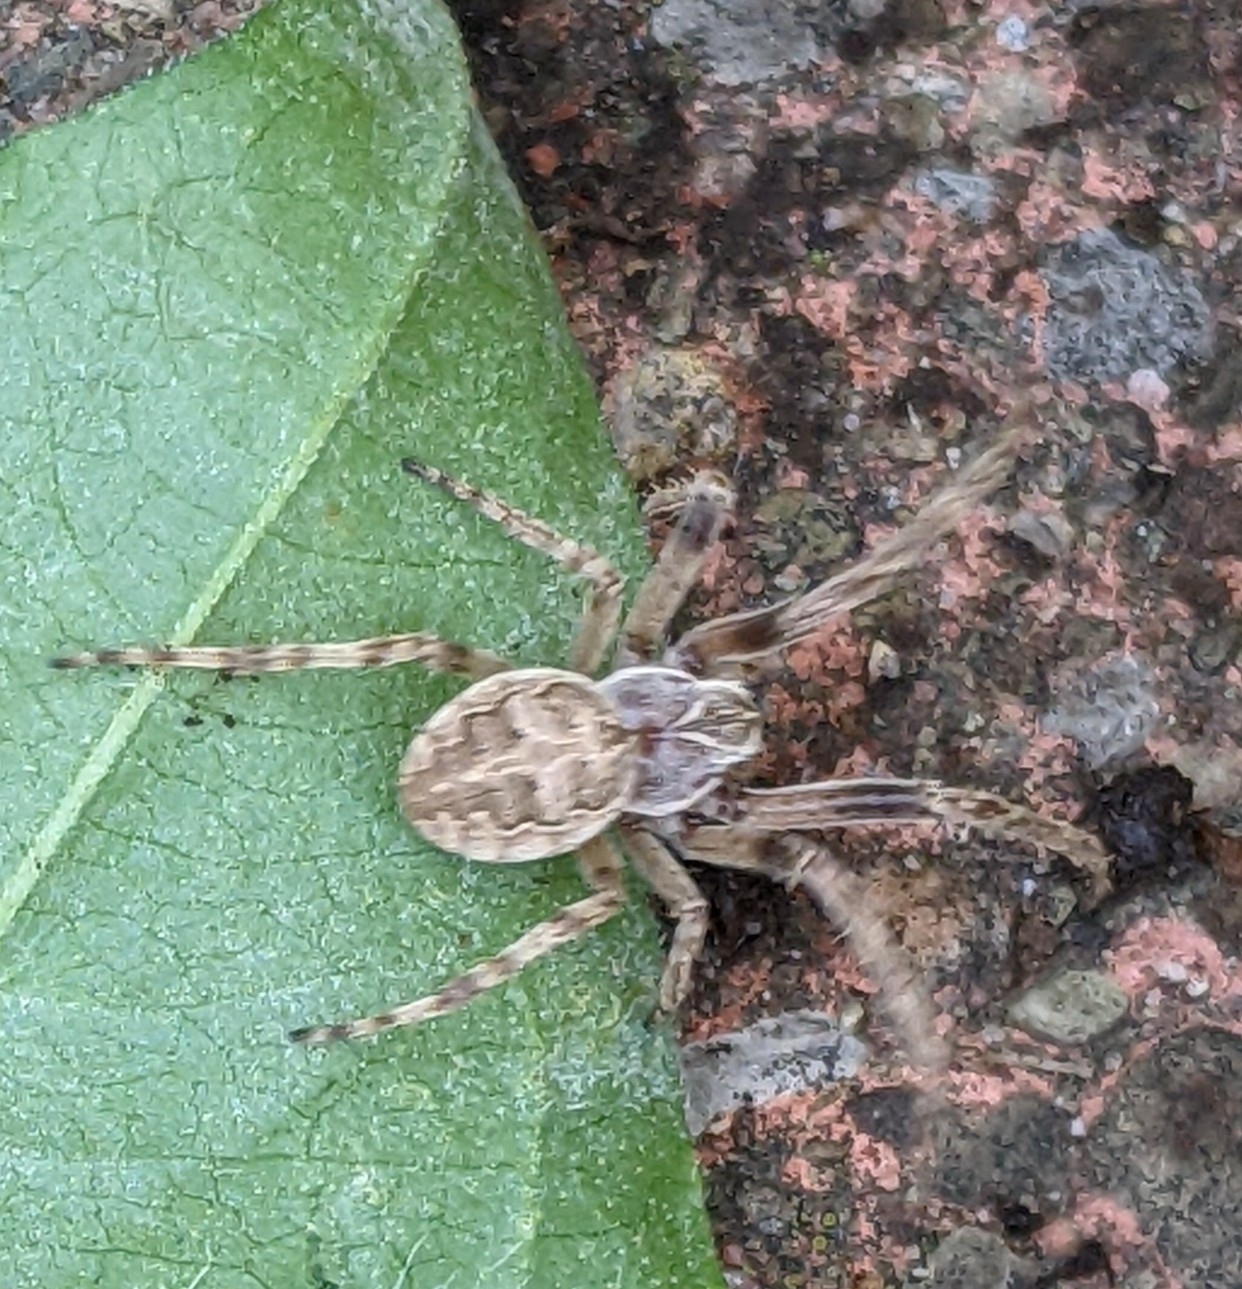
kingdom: Animalia
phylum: Arthropoda
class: Arachnida
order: Araneae
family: Araneidae
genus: Larinioides
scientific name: Larinioides sclopetarius
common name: Bridge orbweaver
